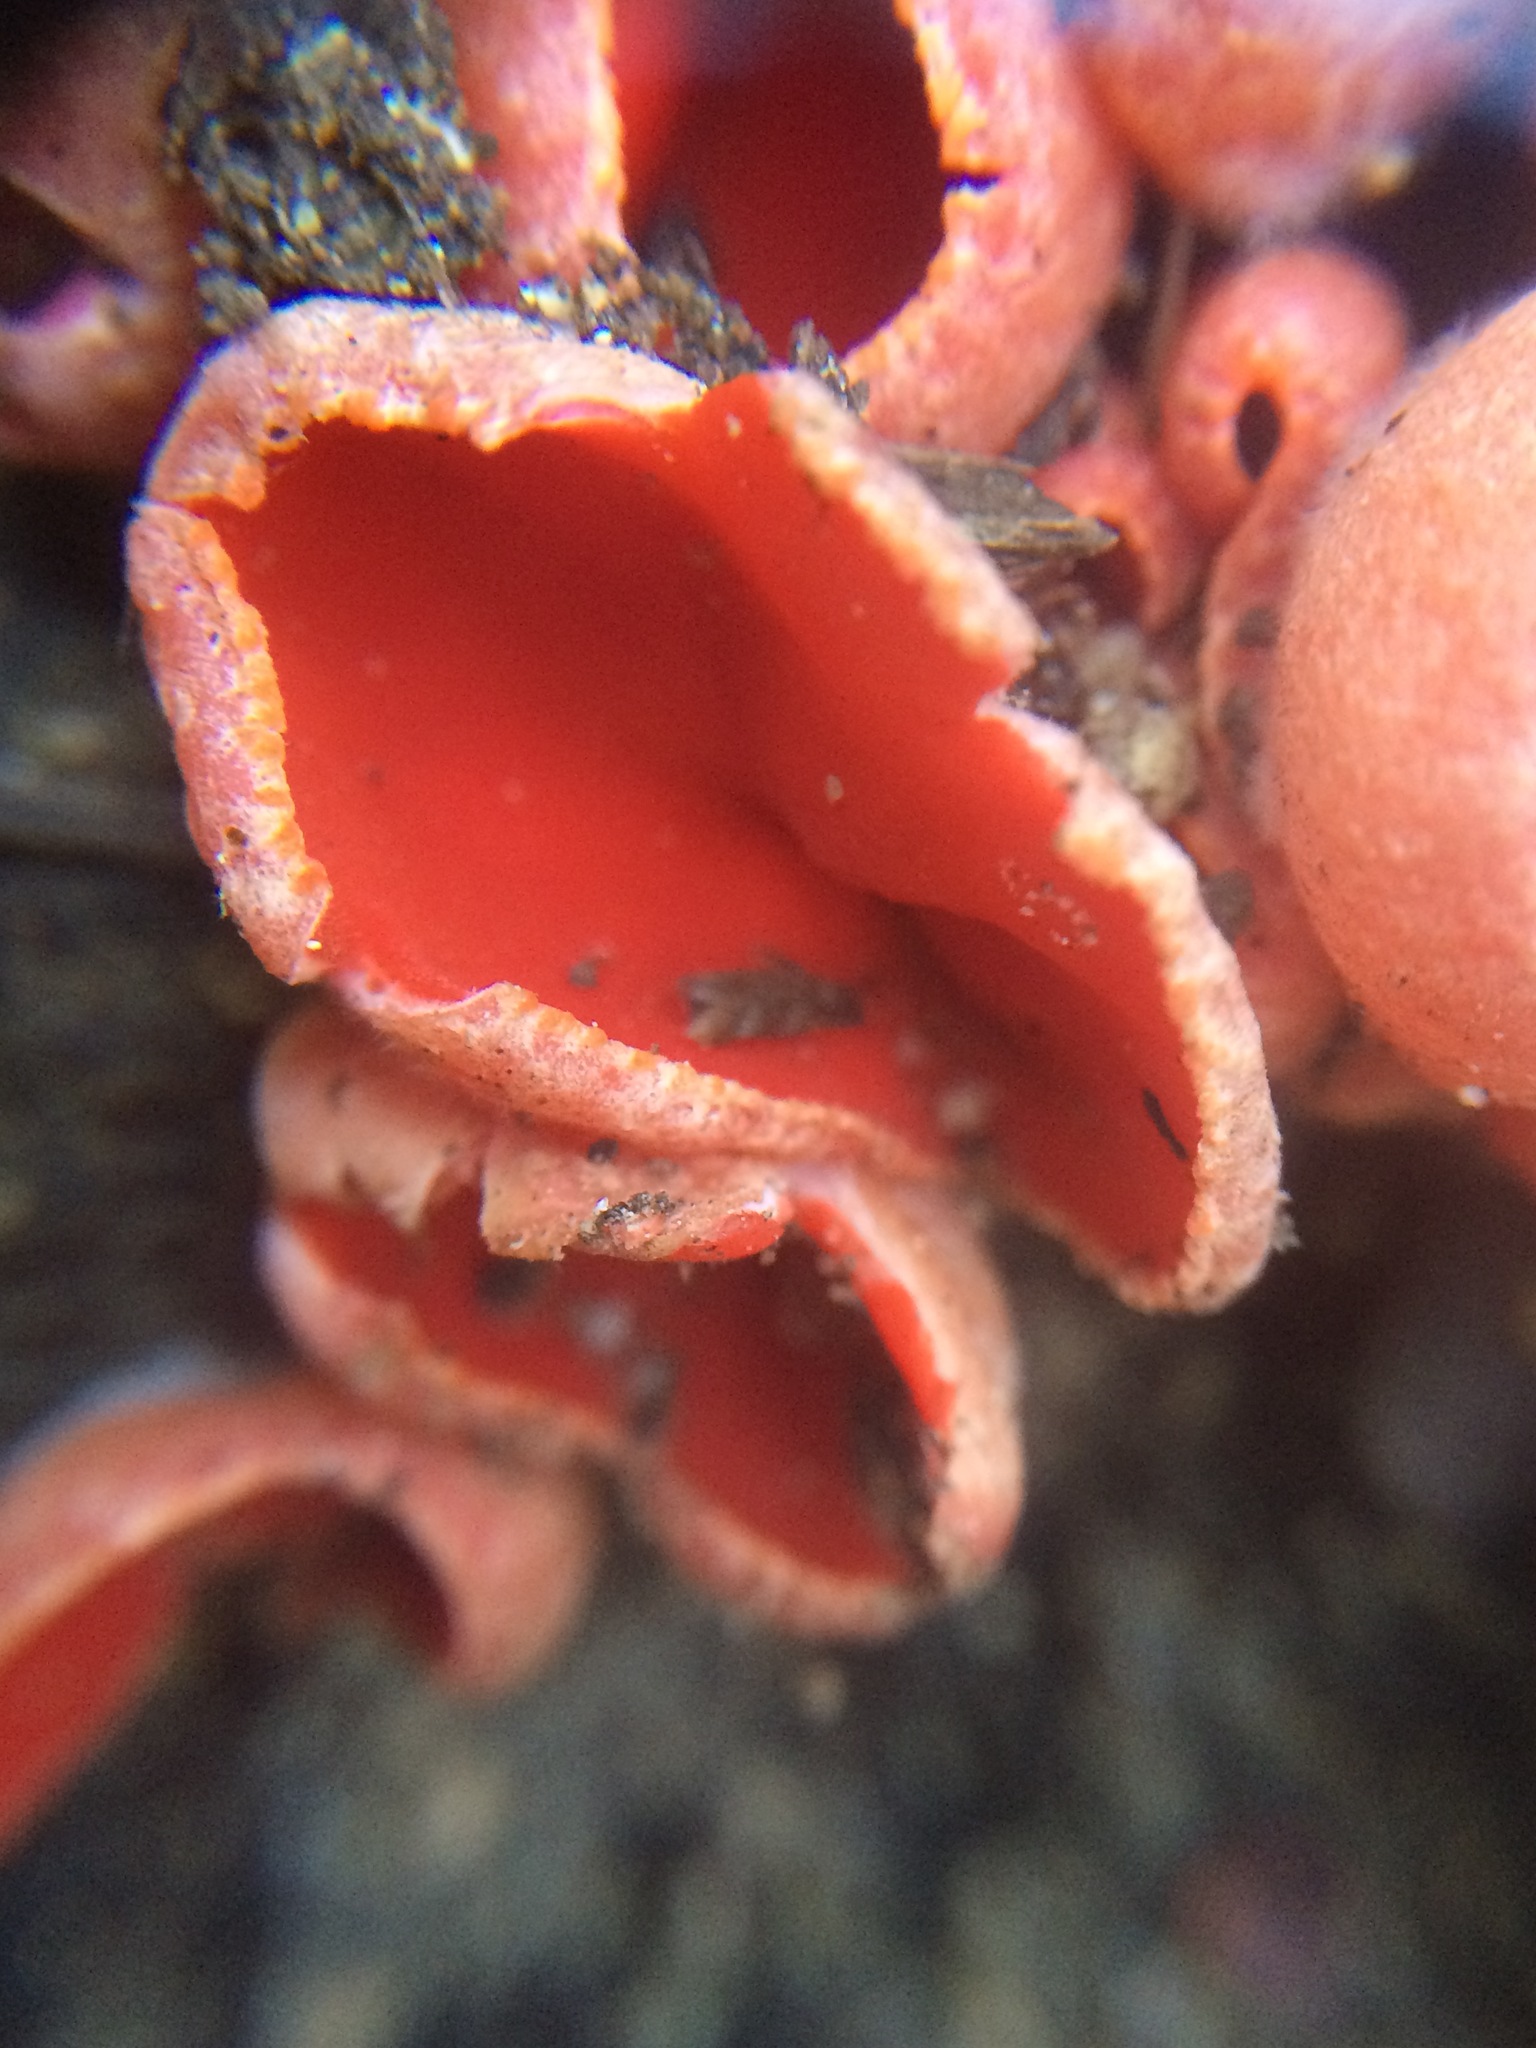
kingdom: Fungi
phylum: Ascomycota
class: Pezizomycetes
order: Pezizales
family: Sarcoscyphaceae
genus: Sarcoscypha
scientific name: Sarcoscypha
